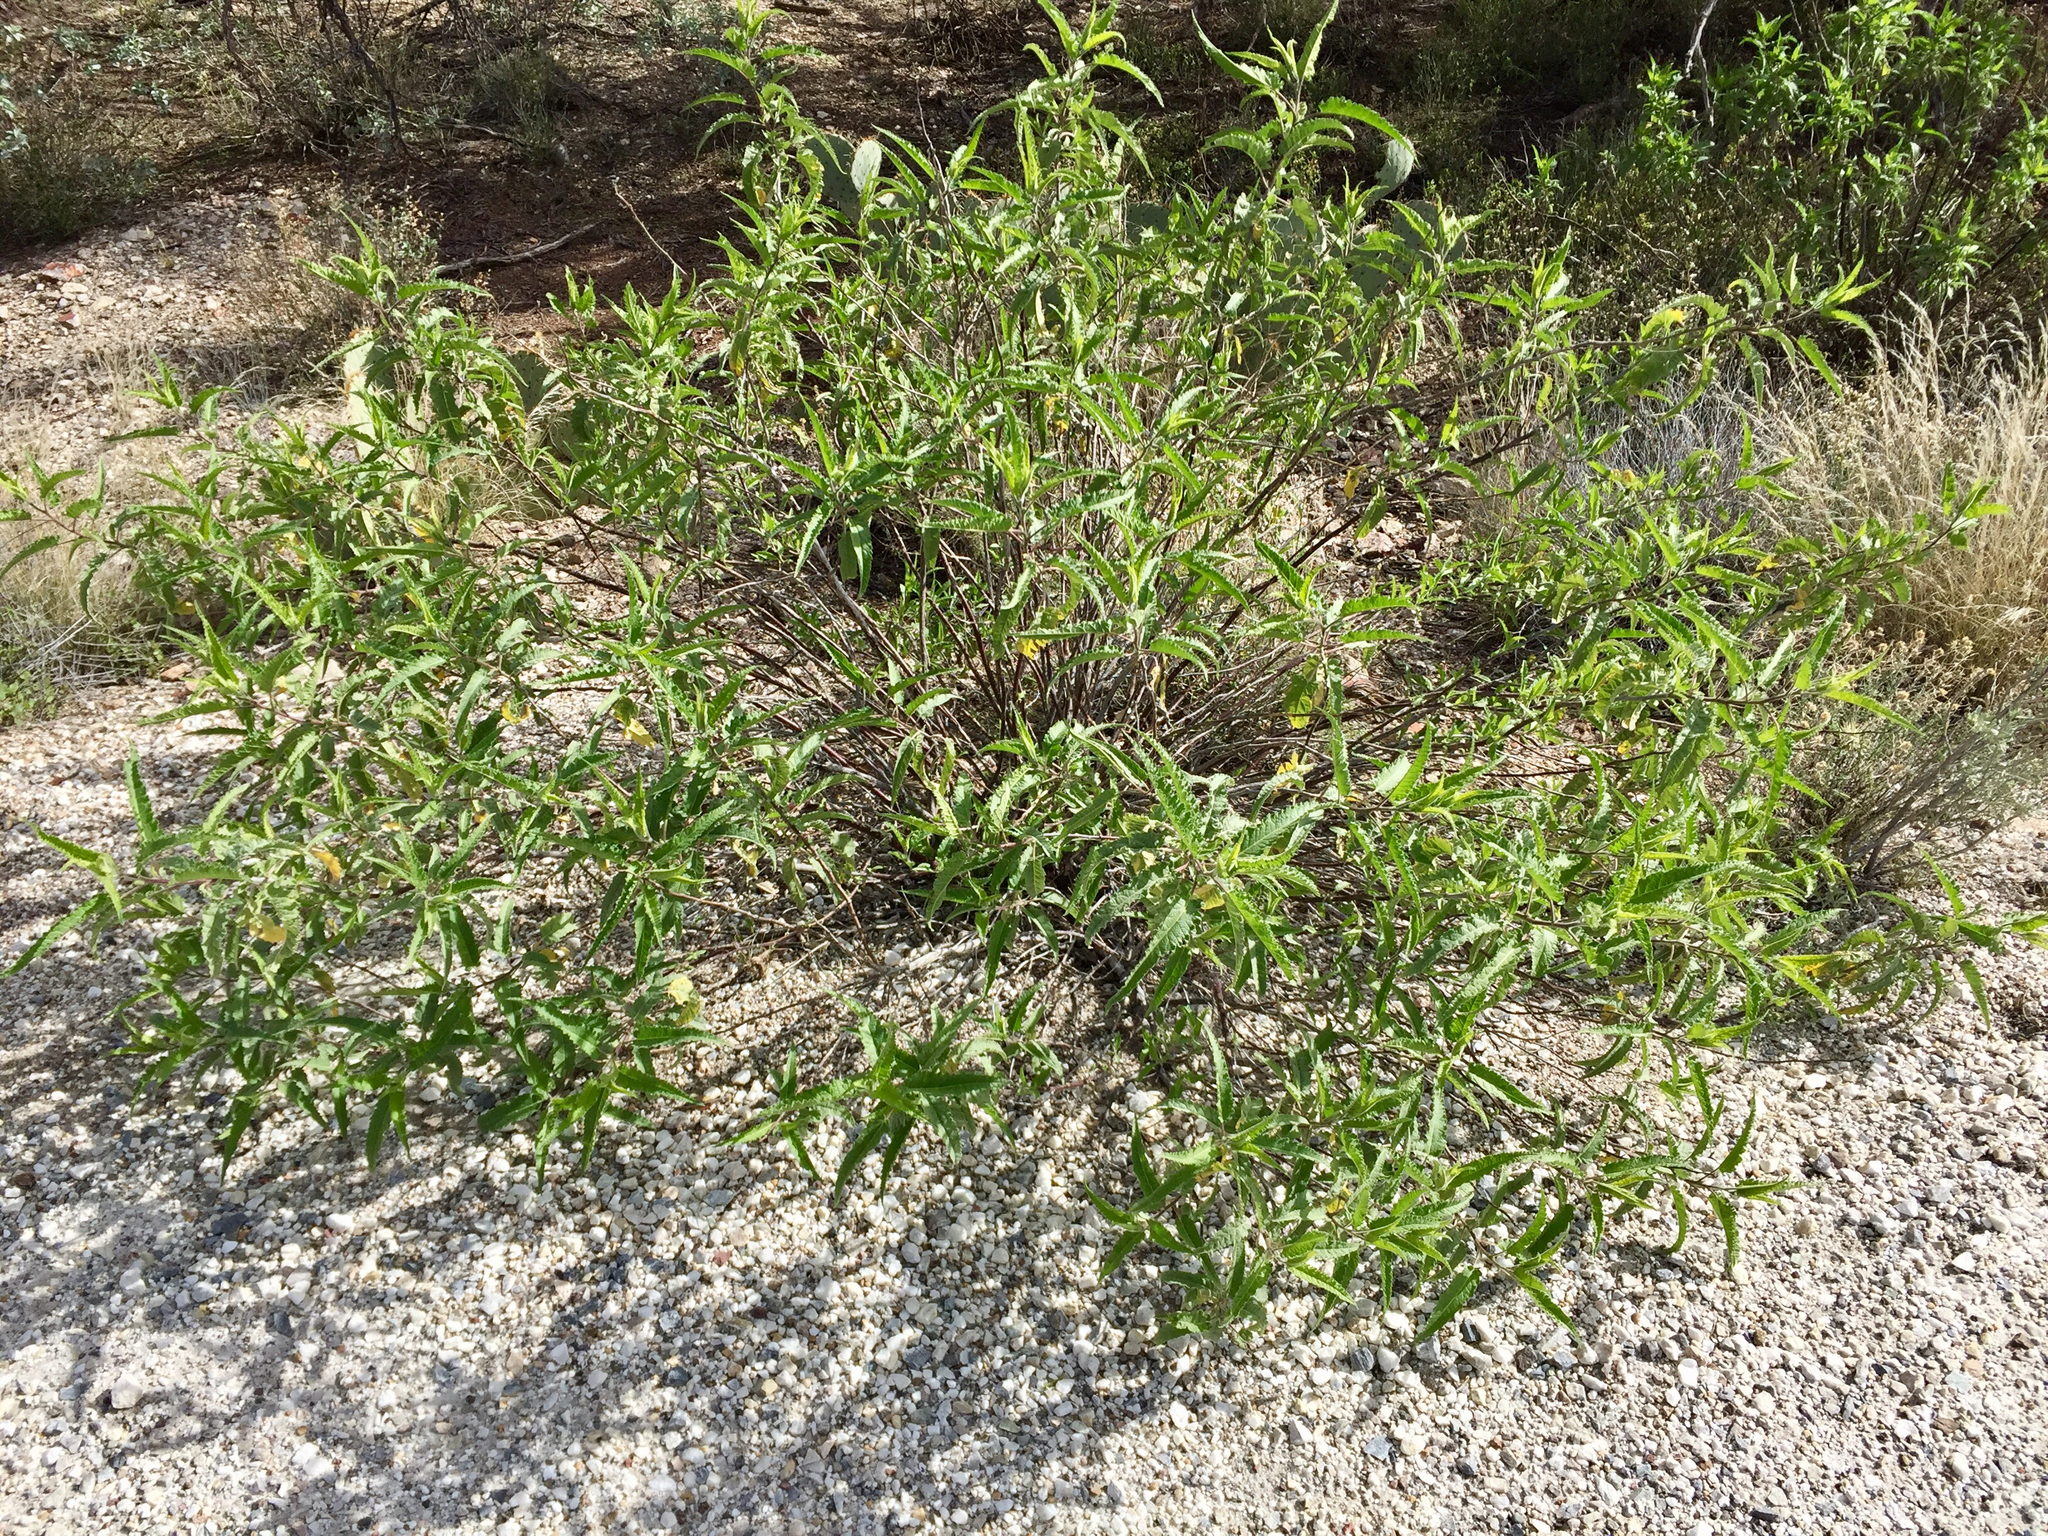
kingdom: Plantae
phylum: Tracheophyta
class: Magnoliopsida
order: Asterales
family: Asteraceae
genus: Ambrosia
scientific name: Ambrosia ambrosioides
